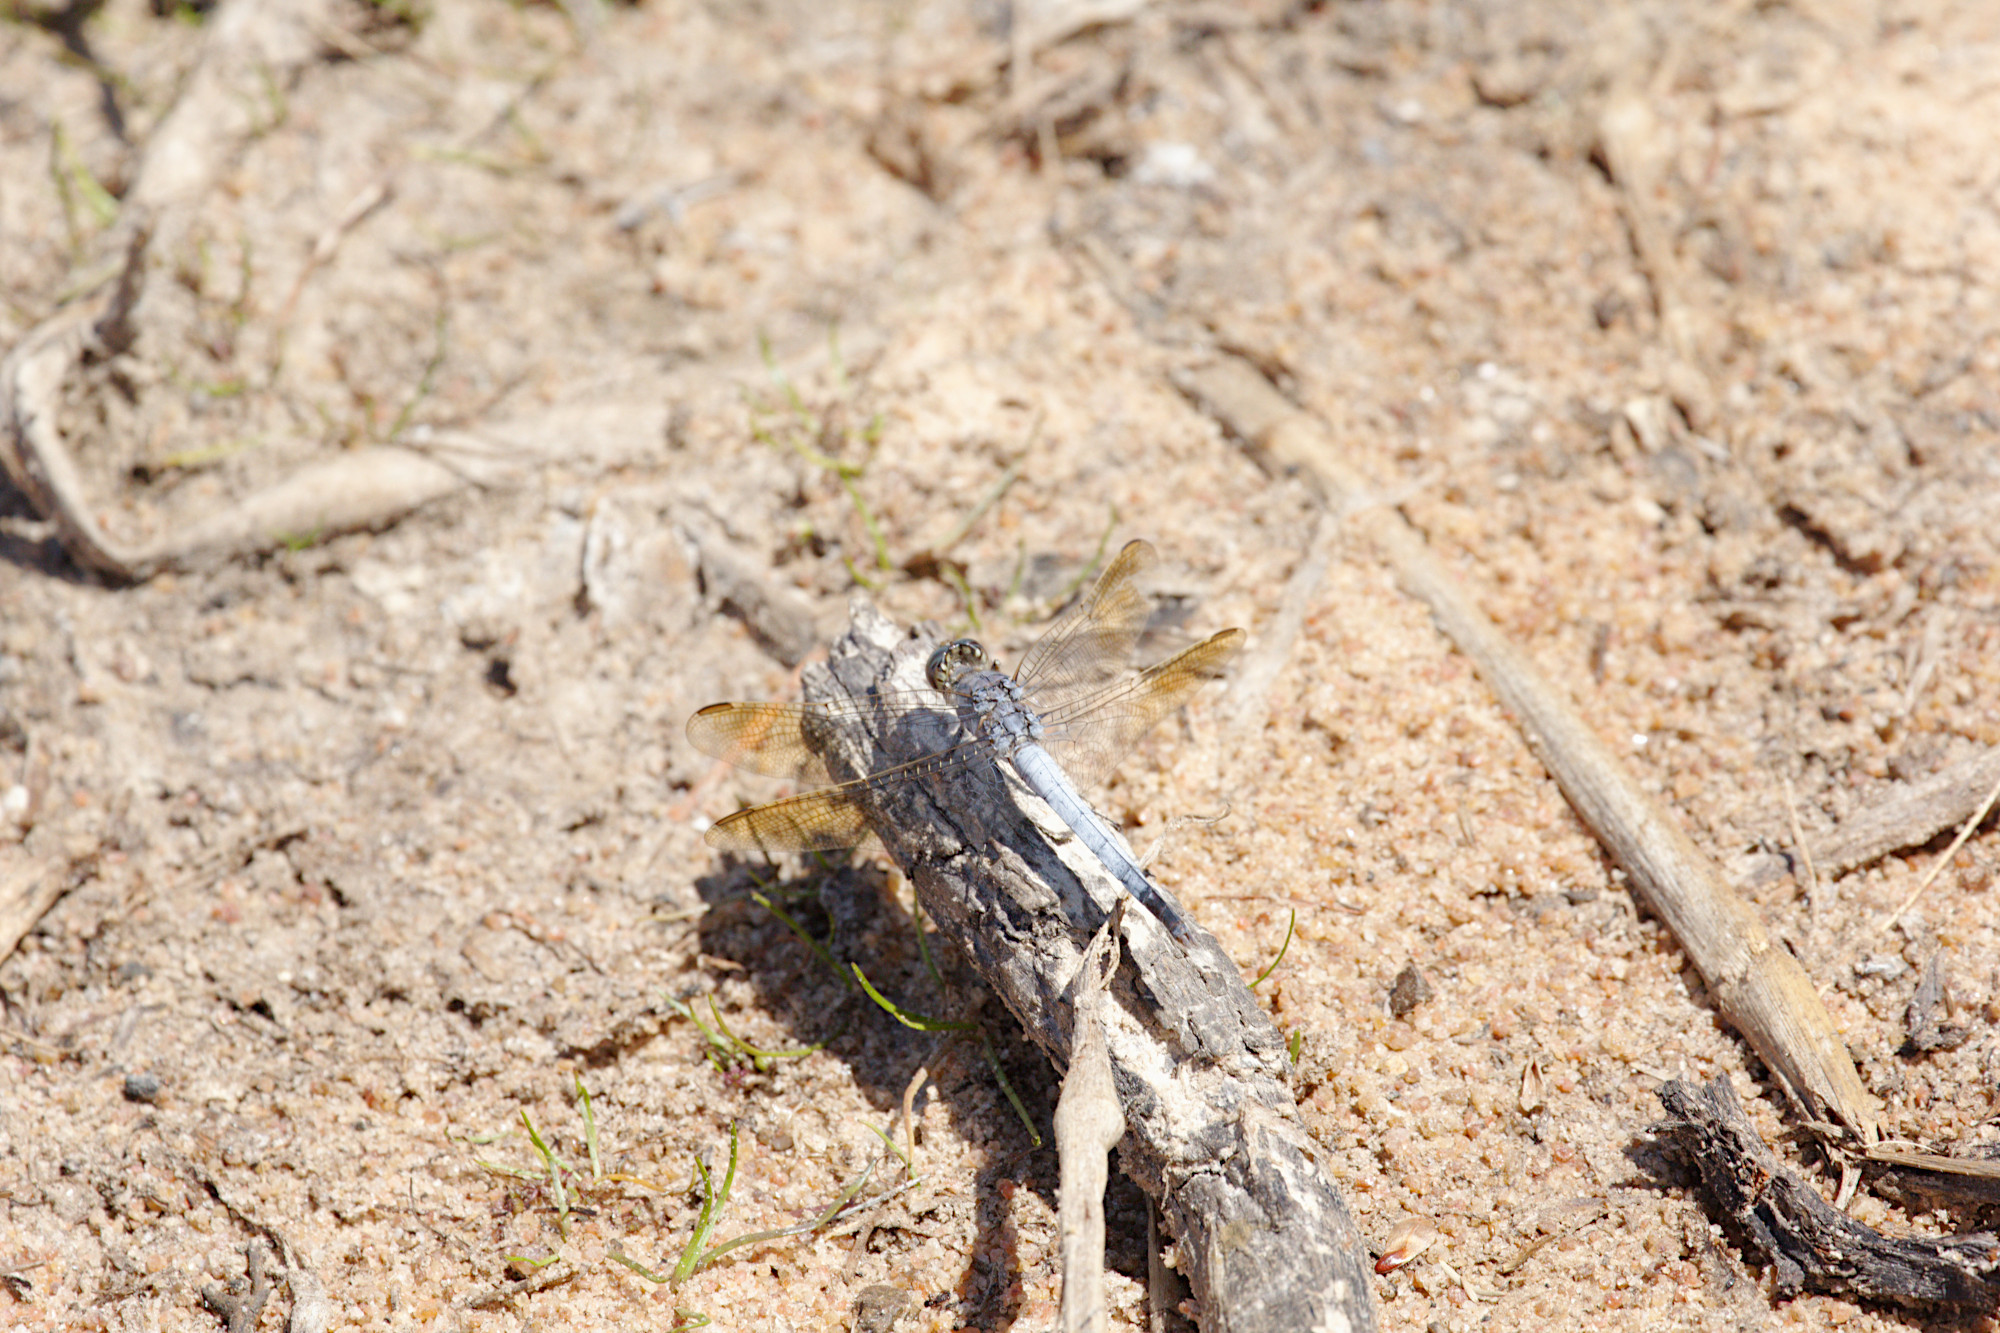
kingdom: Animalia
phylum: Arthropoda
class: Insecta
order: Odonata
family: Libellulidae
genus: Orthetrum
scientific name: Orthetrum caledonicum
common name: Blue skimmer
